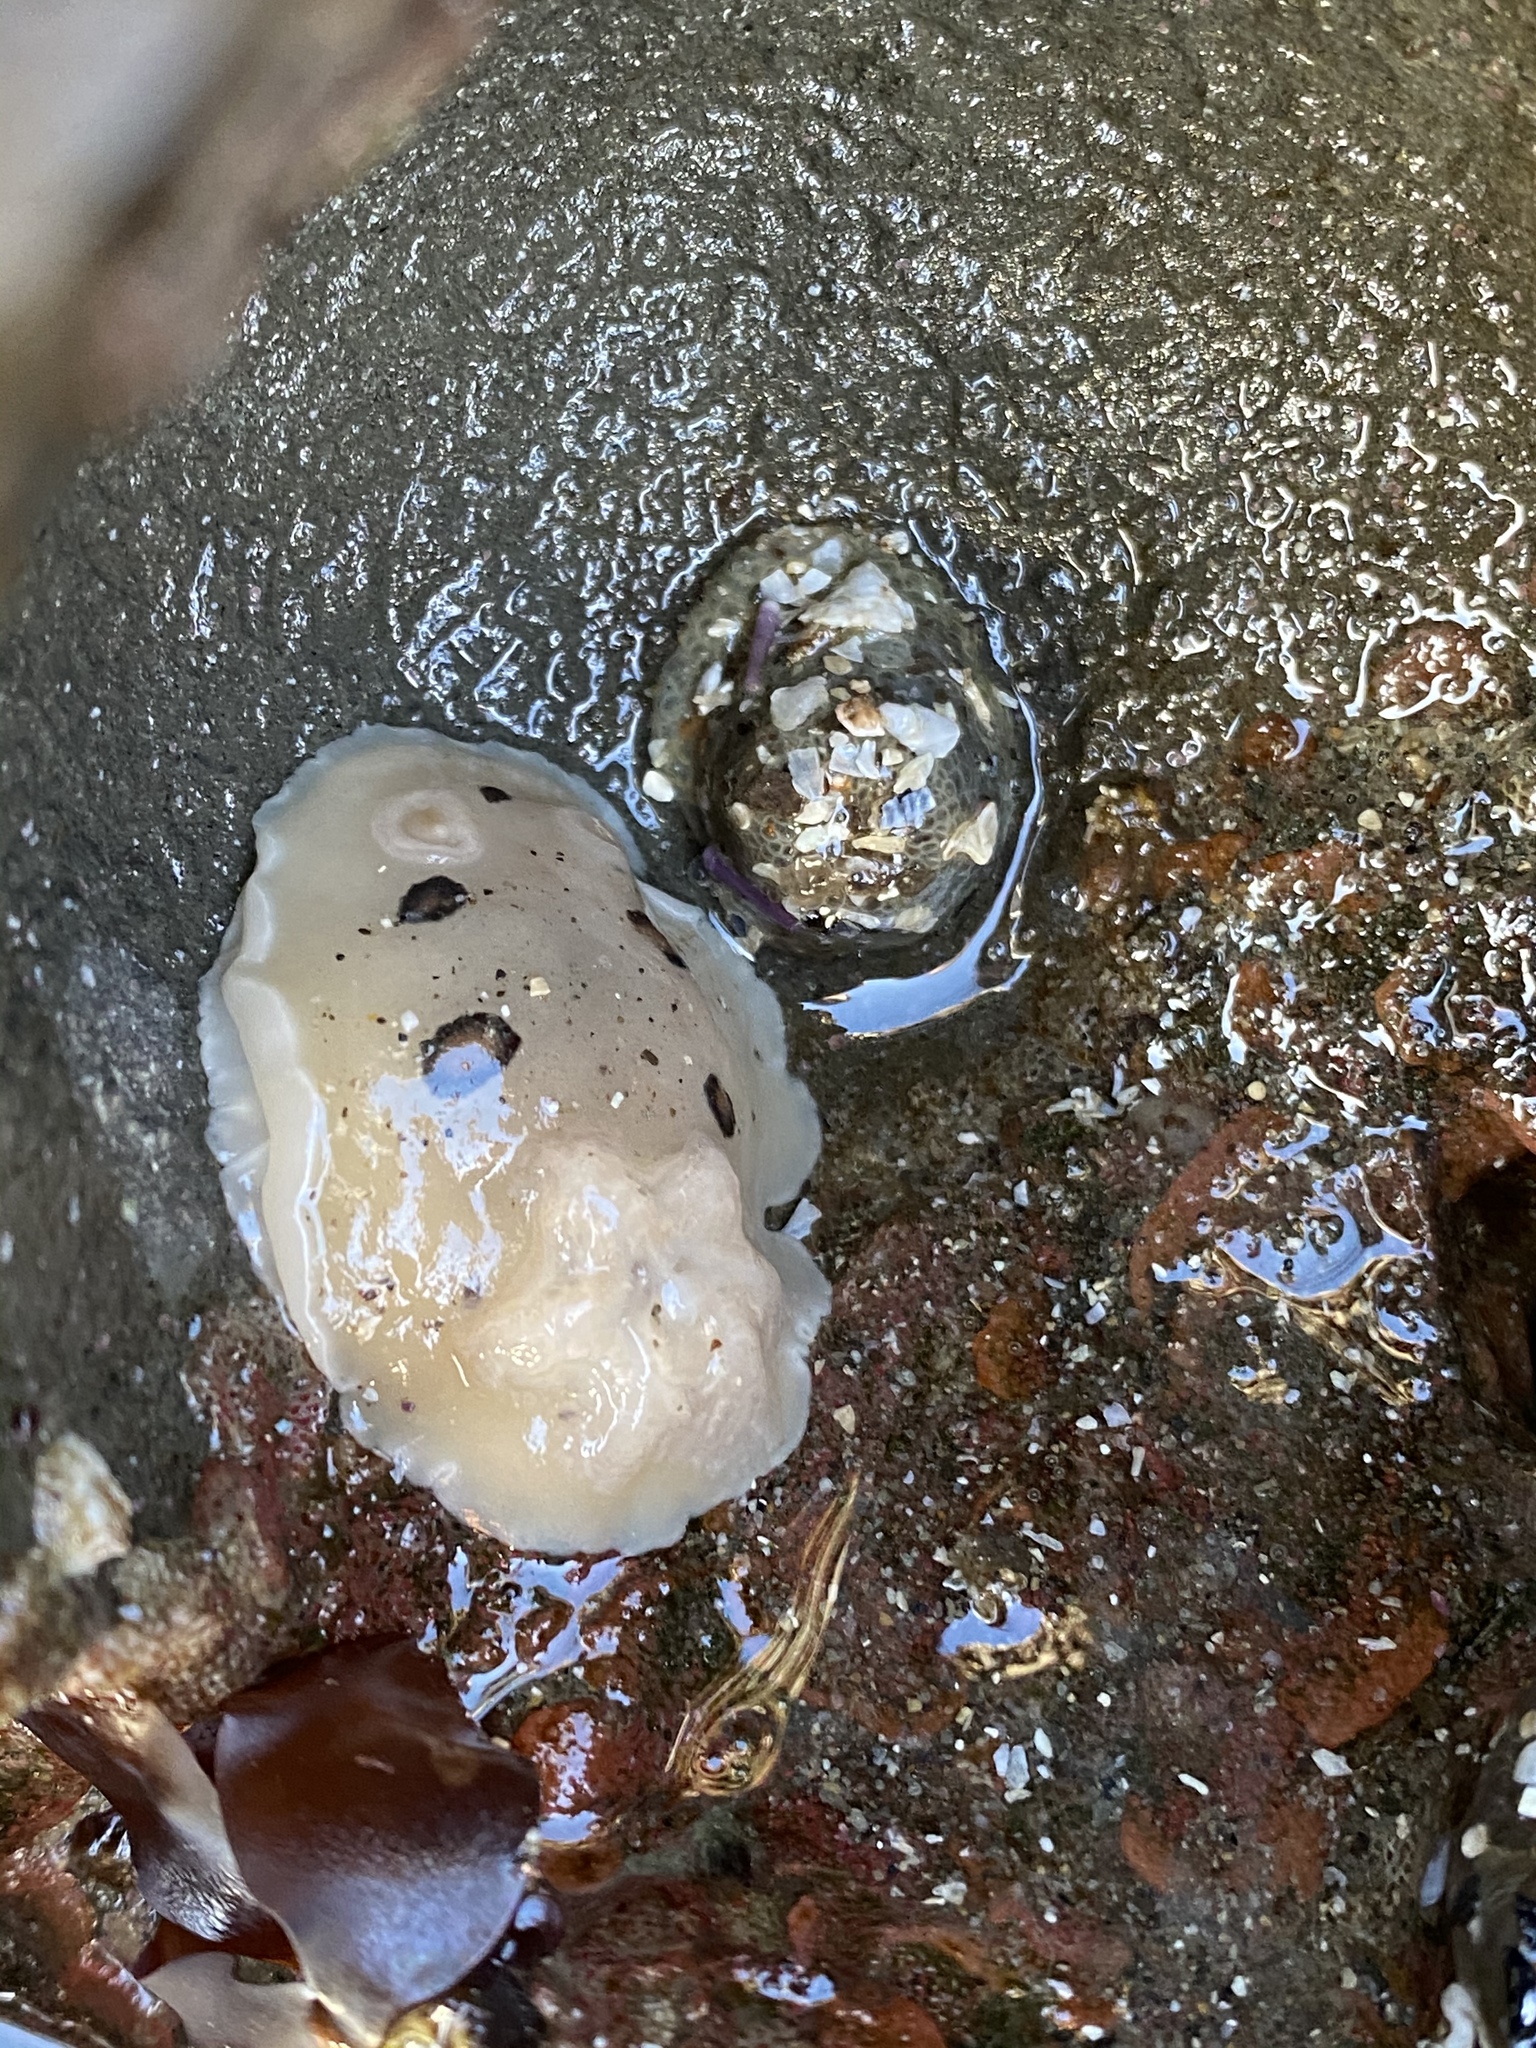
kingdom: Animalia
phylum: Mollusca
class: Gastropoda
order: Nudibranchia
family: Discodorididae
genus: Diaulula
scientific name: Diaulula sandiegensis
